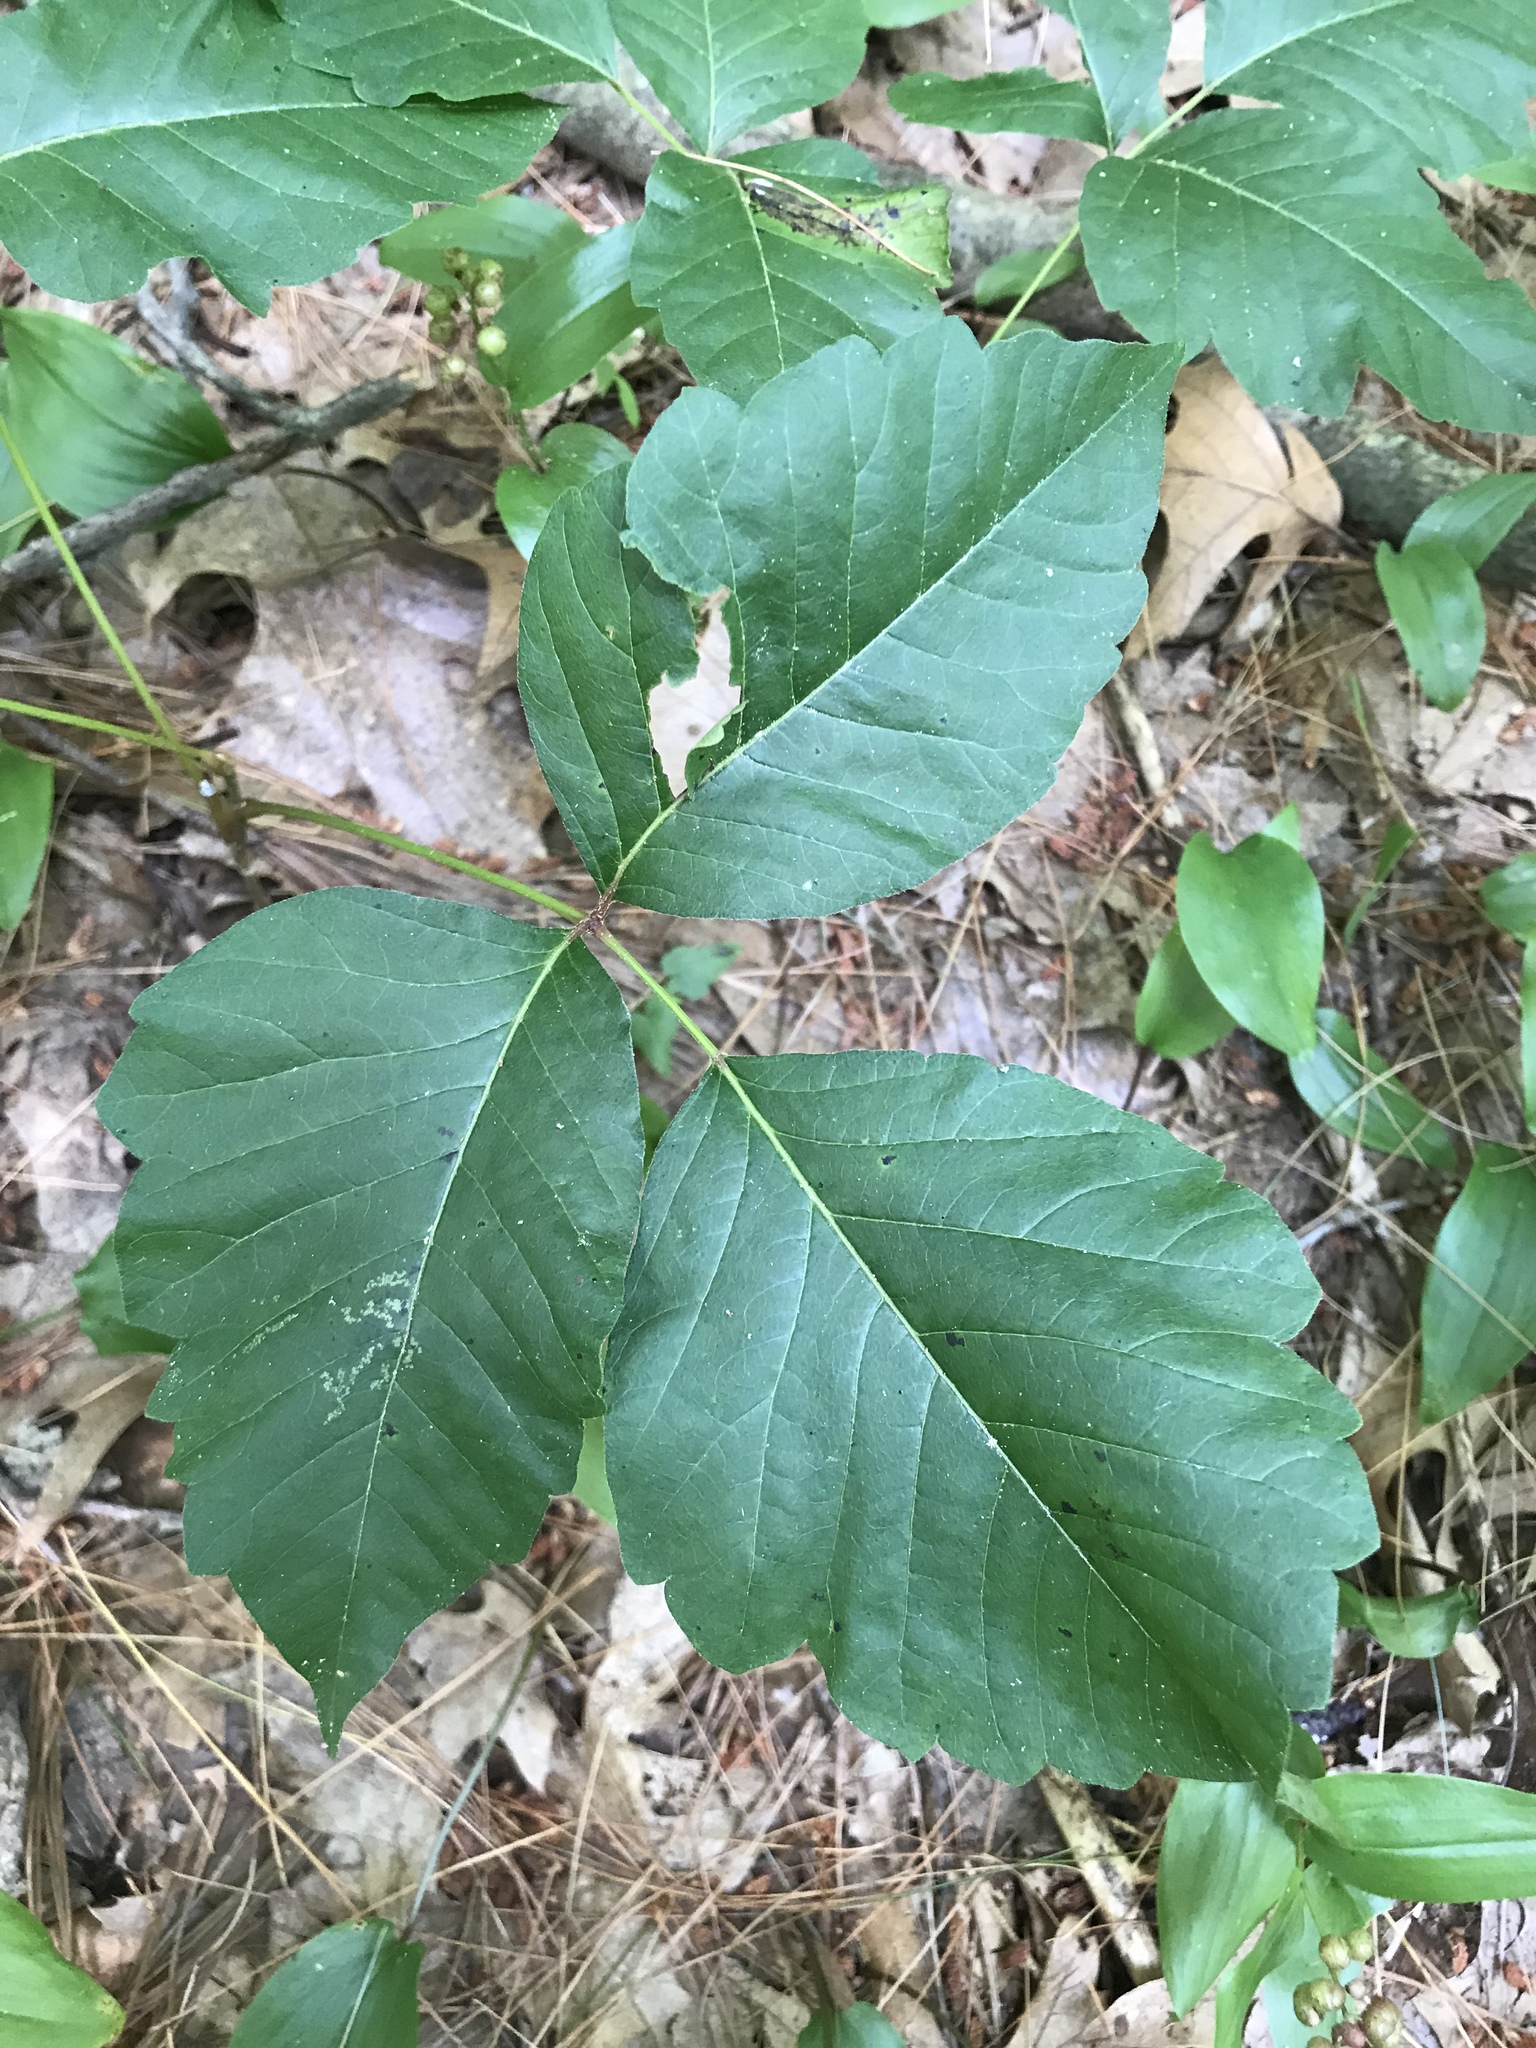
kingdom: Plantae
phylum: Tracheophyta
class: Magnoliopsida
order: Sapindales
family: Anacardiaceae
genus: Toxicodendron
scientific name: Toxicodendron radicans
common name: Poison ivy
